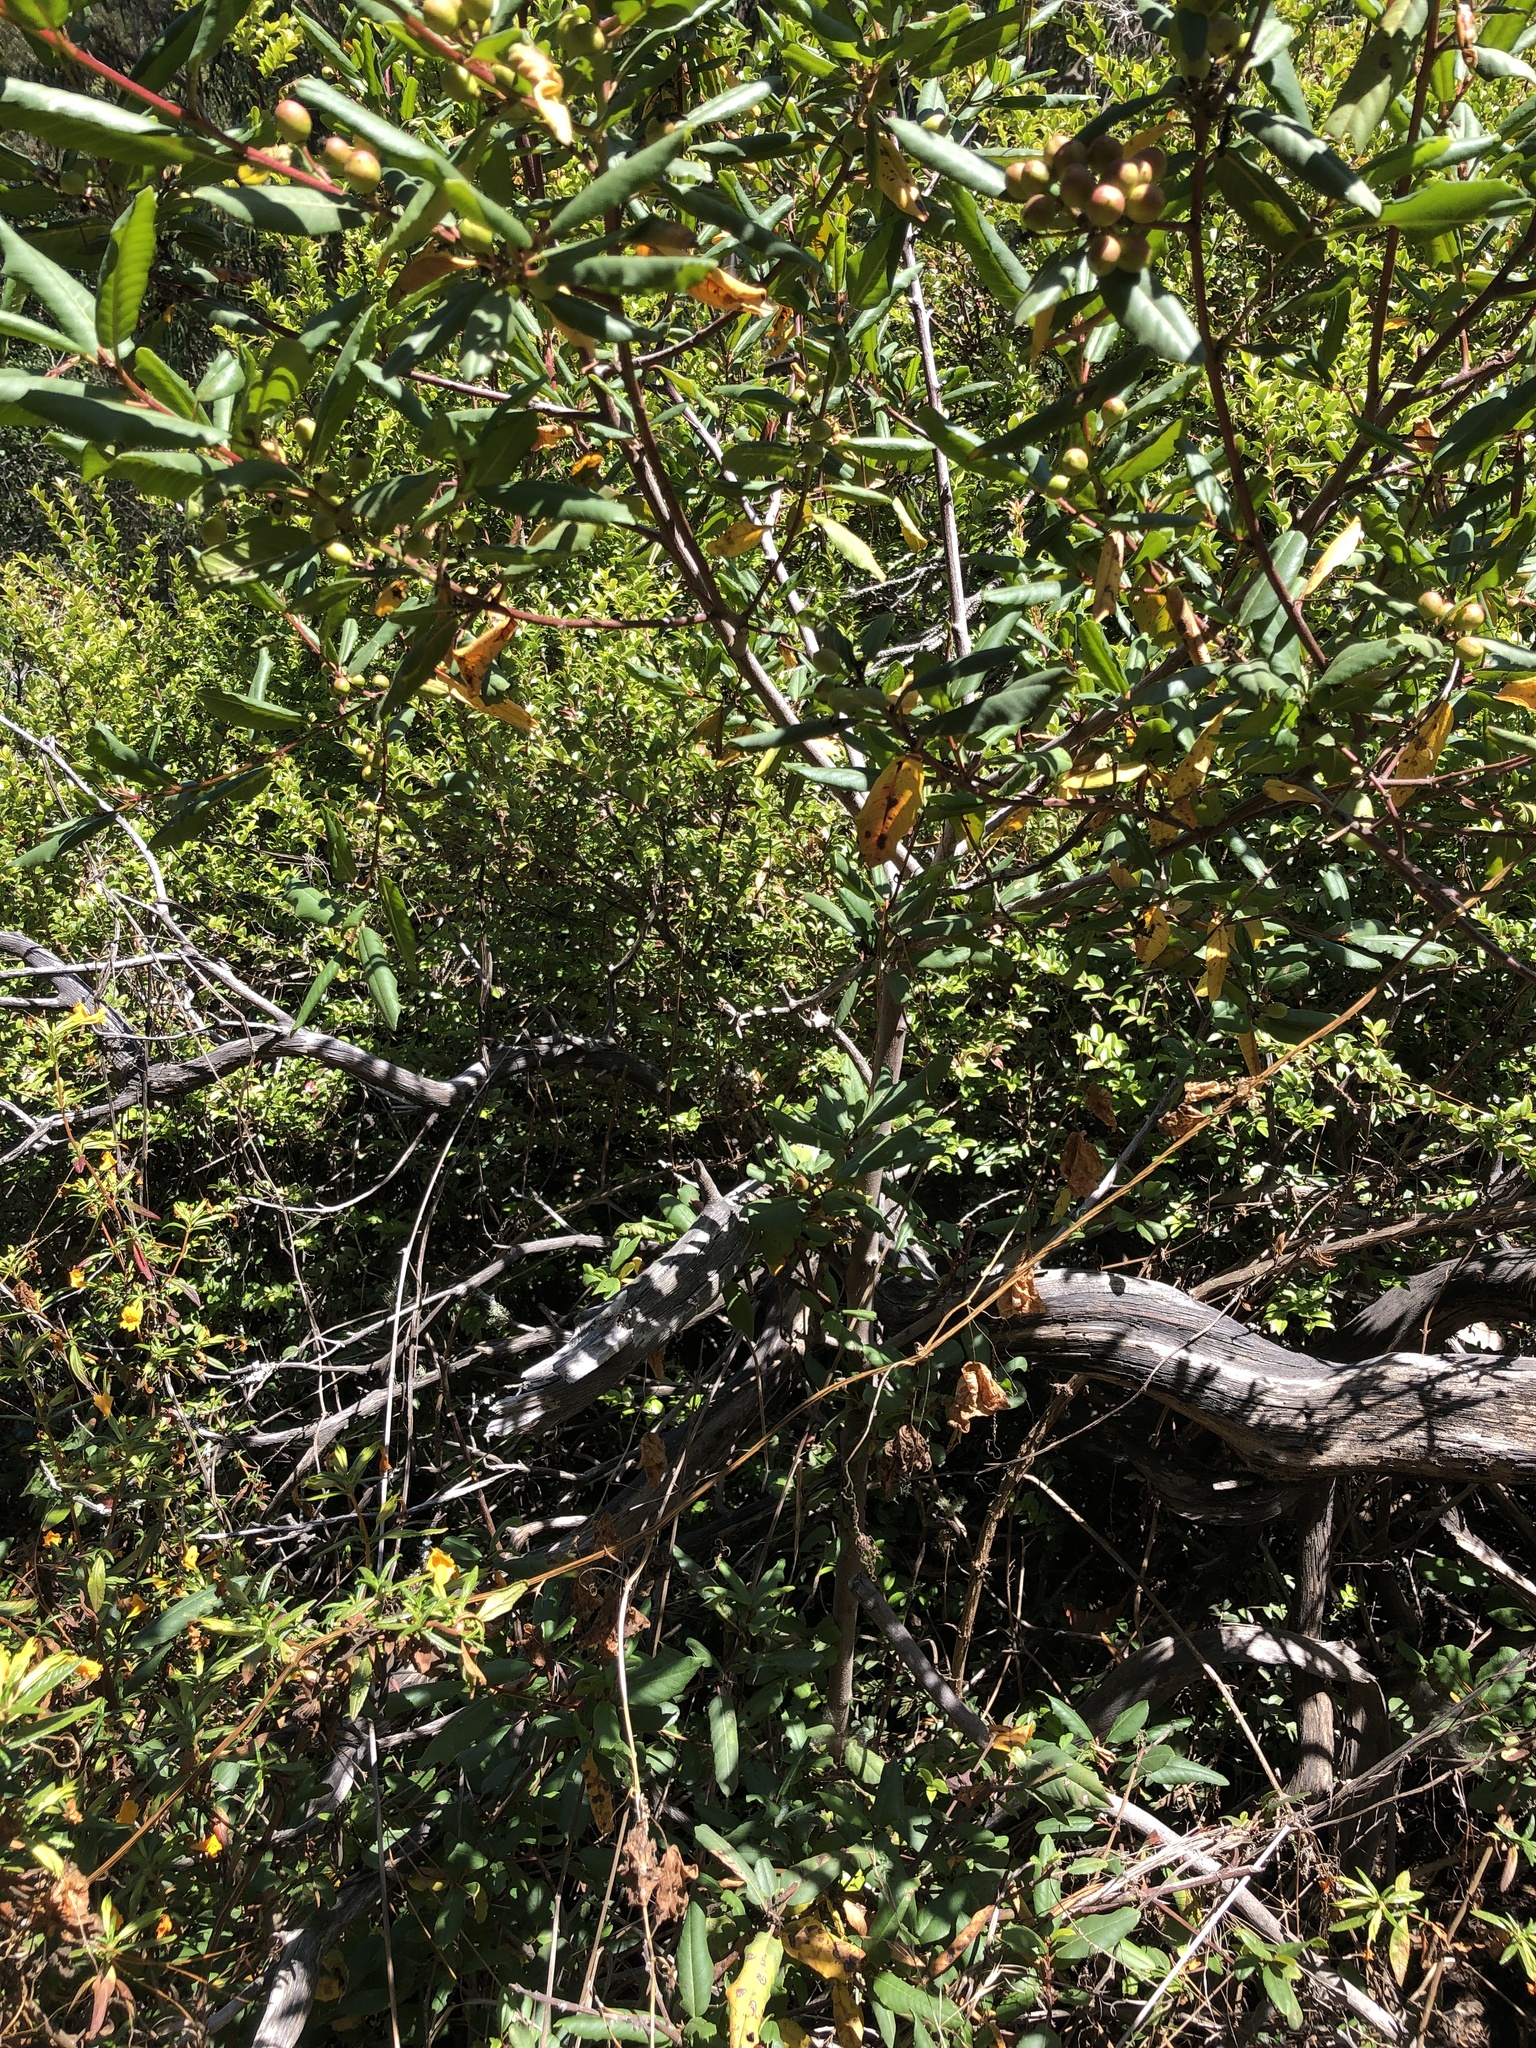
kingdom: Plantae
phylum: Tracheophyta
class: Magnoliopsida
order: Rosales
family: Rhamnaceae
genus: Frangula
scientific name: Frangula californica
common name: California buckthorn
